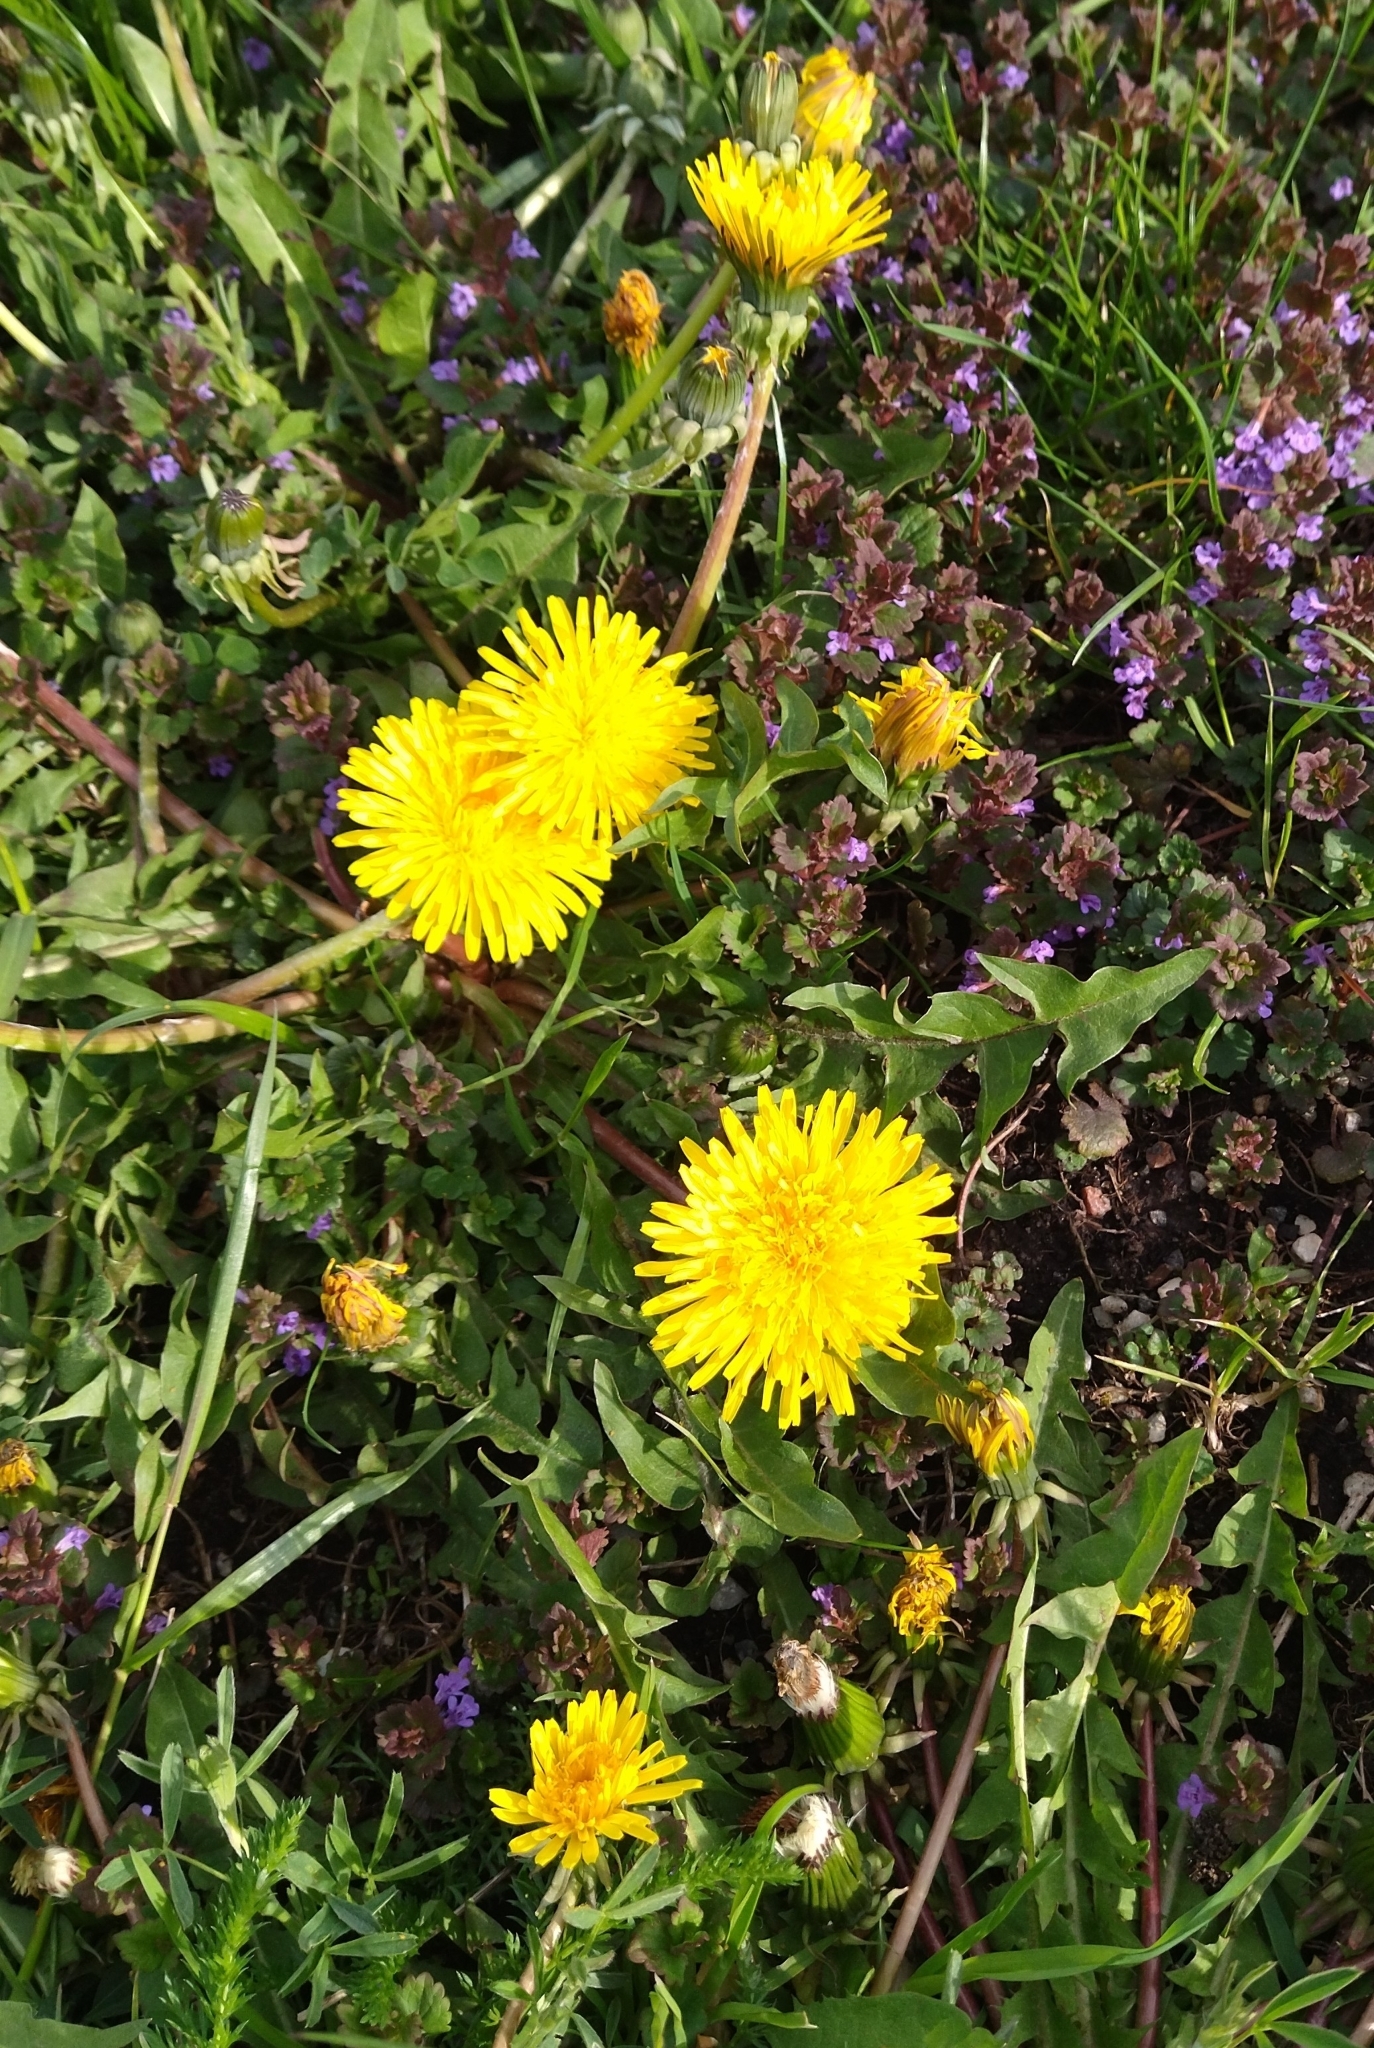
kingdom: Plantae
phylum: Tracheophyta
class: Magnoliopsida
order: Asterales
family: Asteraceae
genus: Taraxacum
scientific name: Taraxacum officinale
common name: Common dandelion
